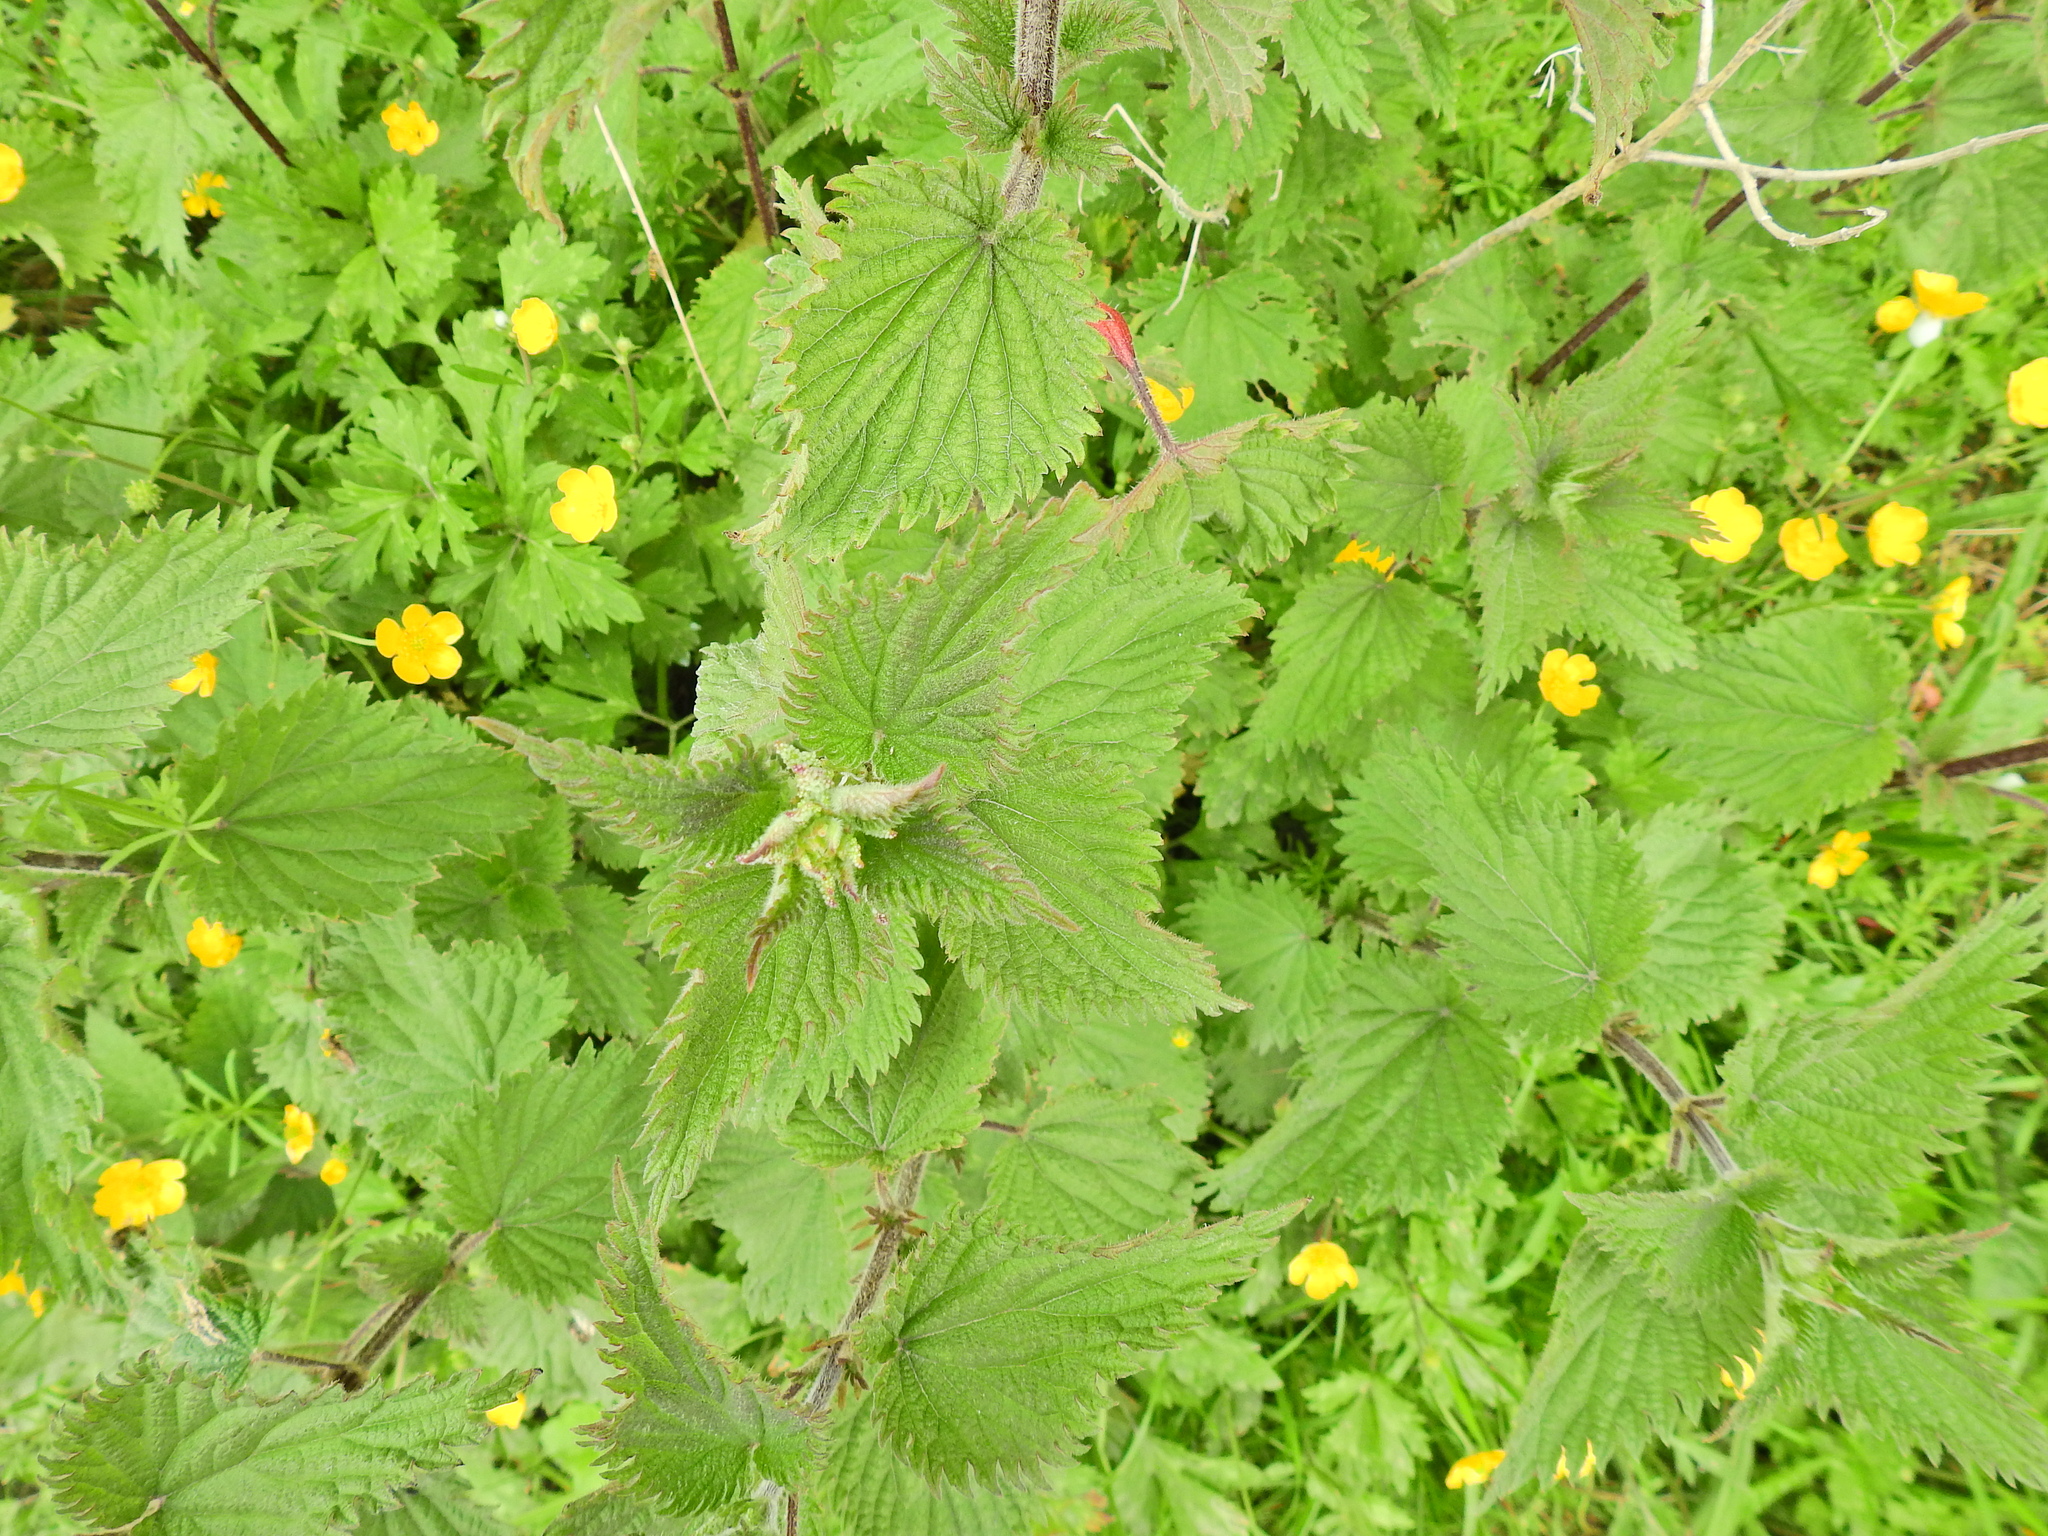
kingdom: Plantae
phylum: Tracheophyta
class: Magnoliopsida
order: Rosales
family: Urticaceae
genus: Urtica
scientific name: Urtica dioica
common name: Common nettle
